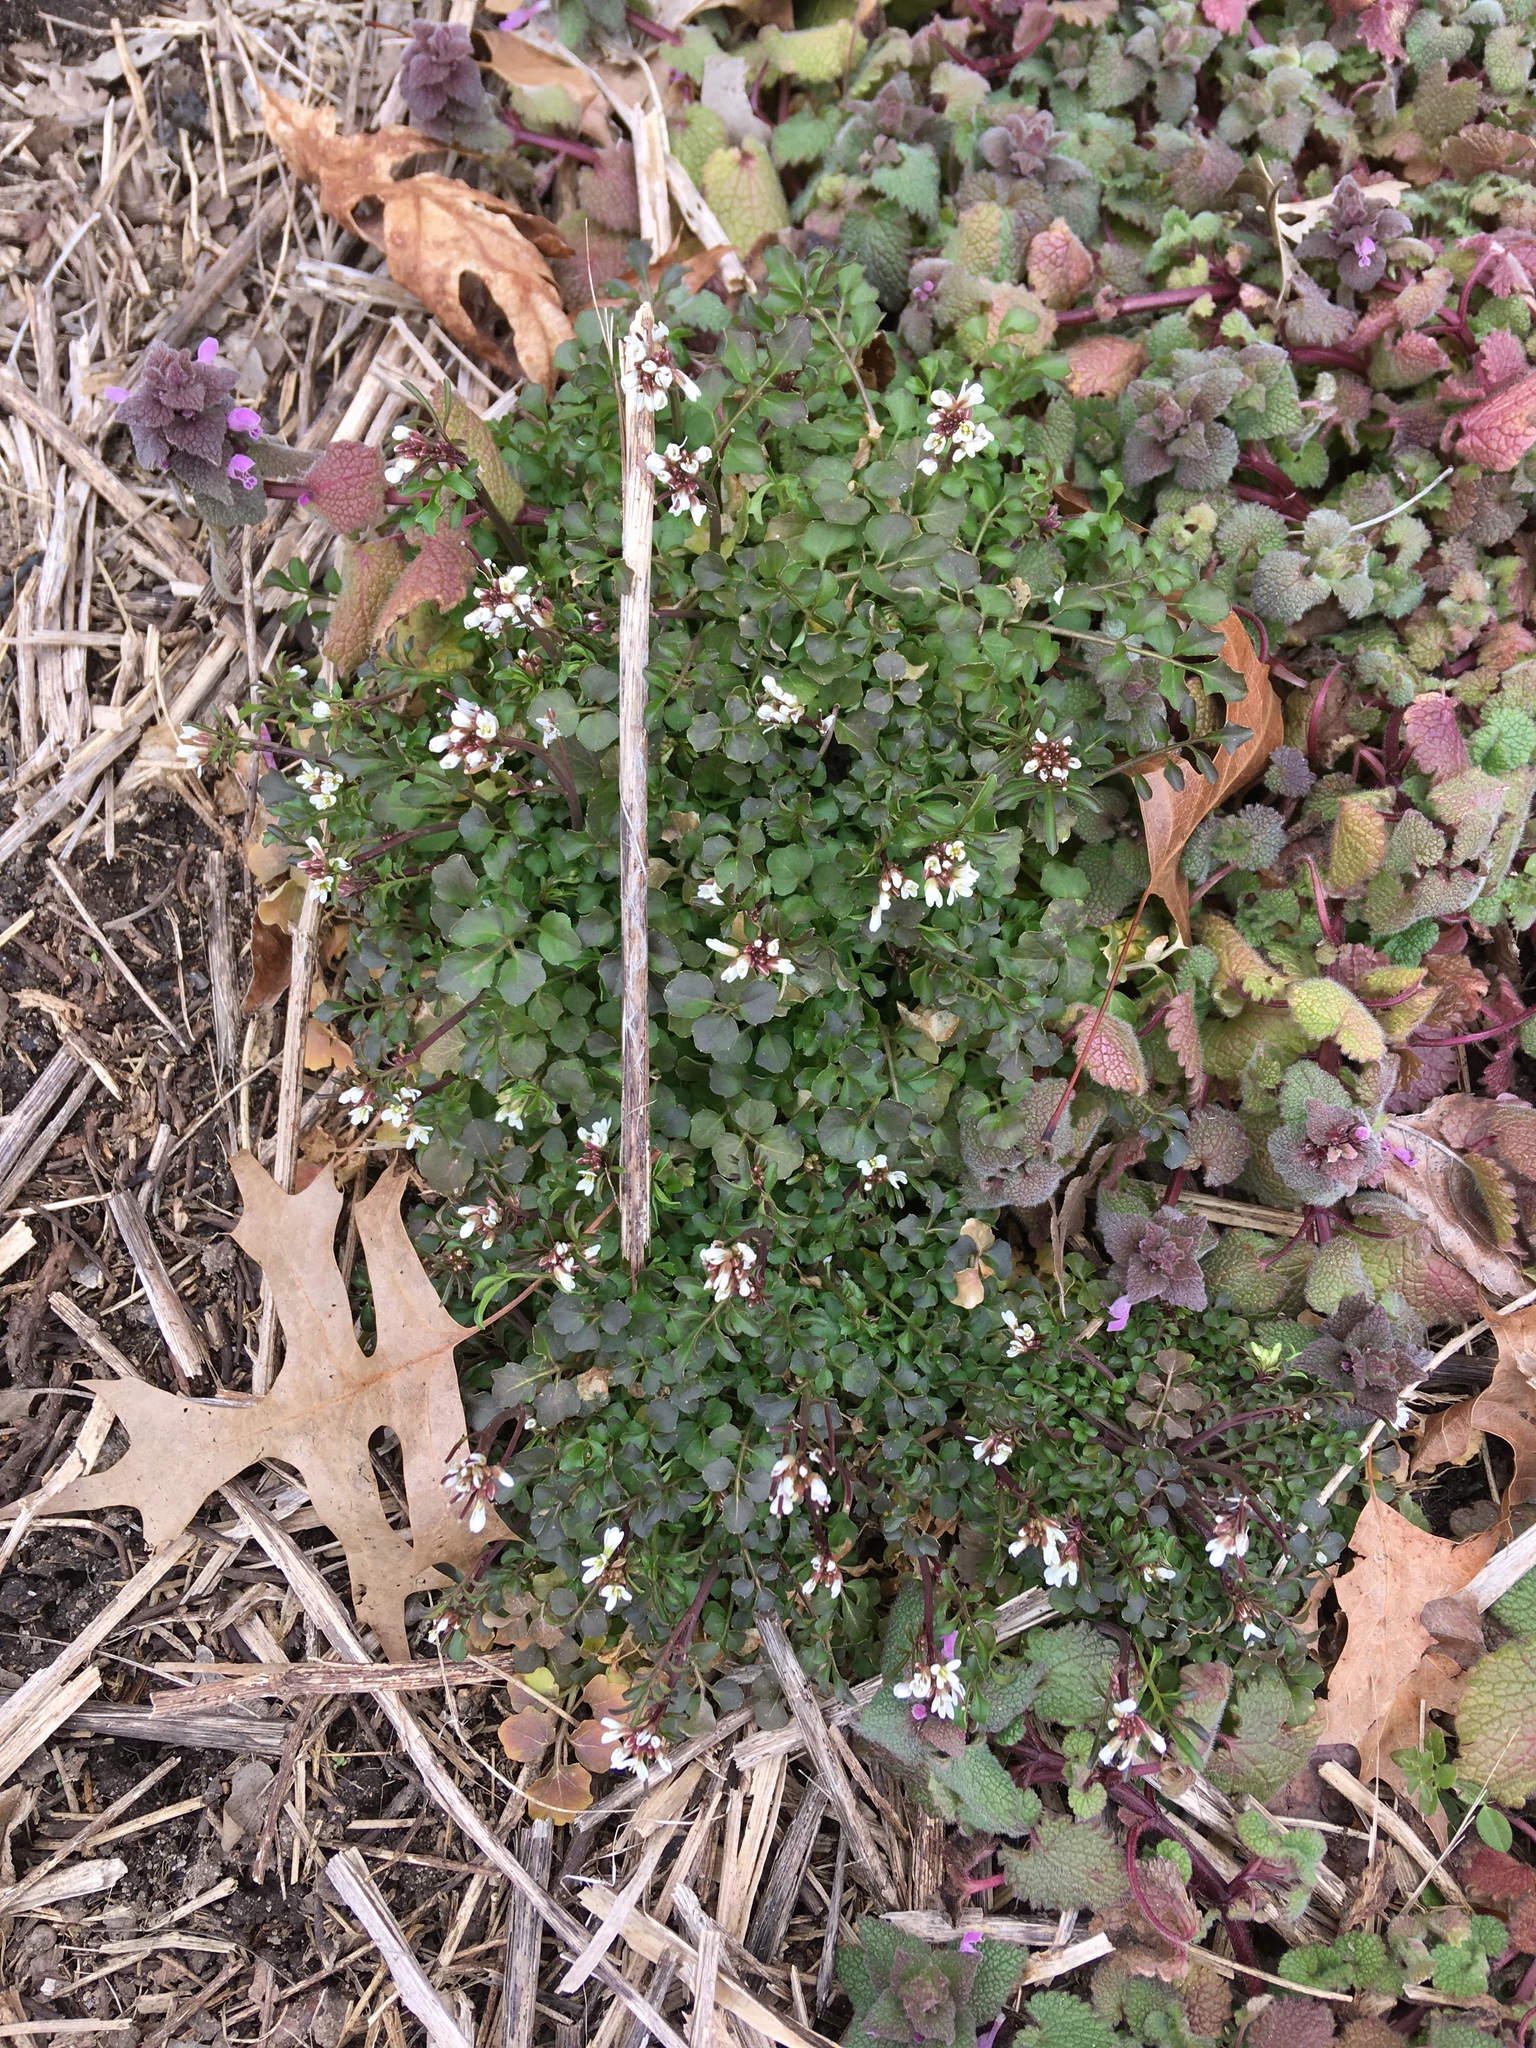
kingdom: Plantae
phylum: Tracheophyta
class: Magnoliopsida
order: Brassicales
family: Brassicaceae
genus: Cardamine
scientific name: Cardamine hirsuta
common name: Hairy bittercress
